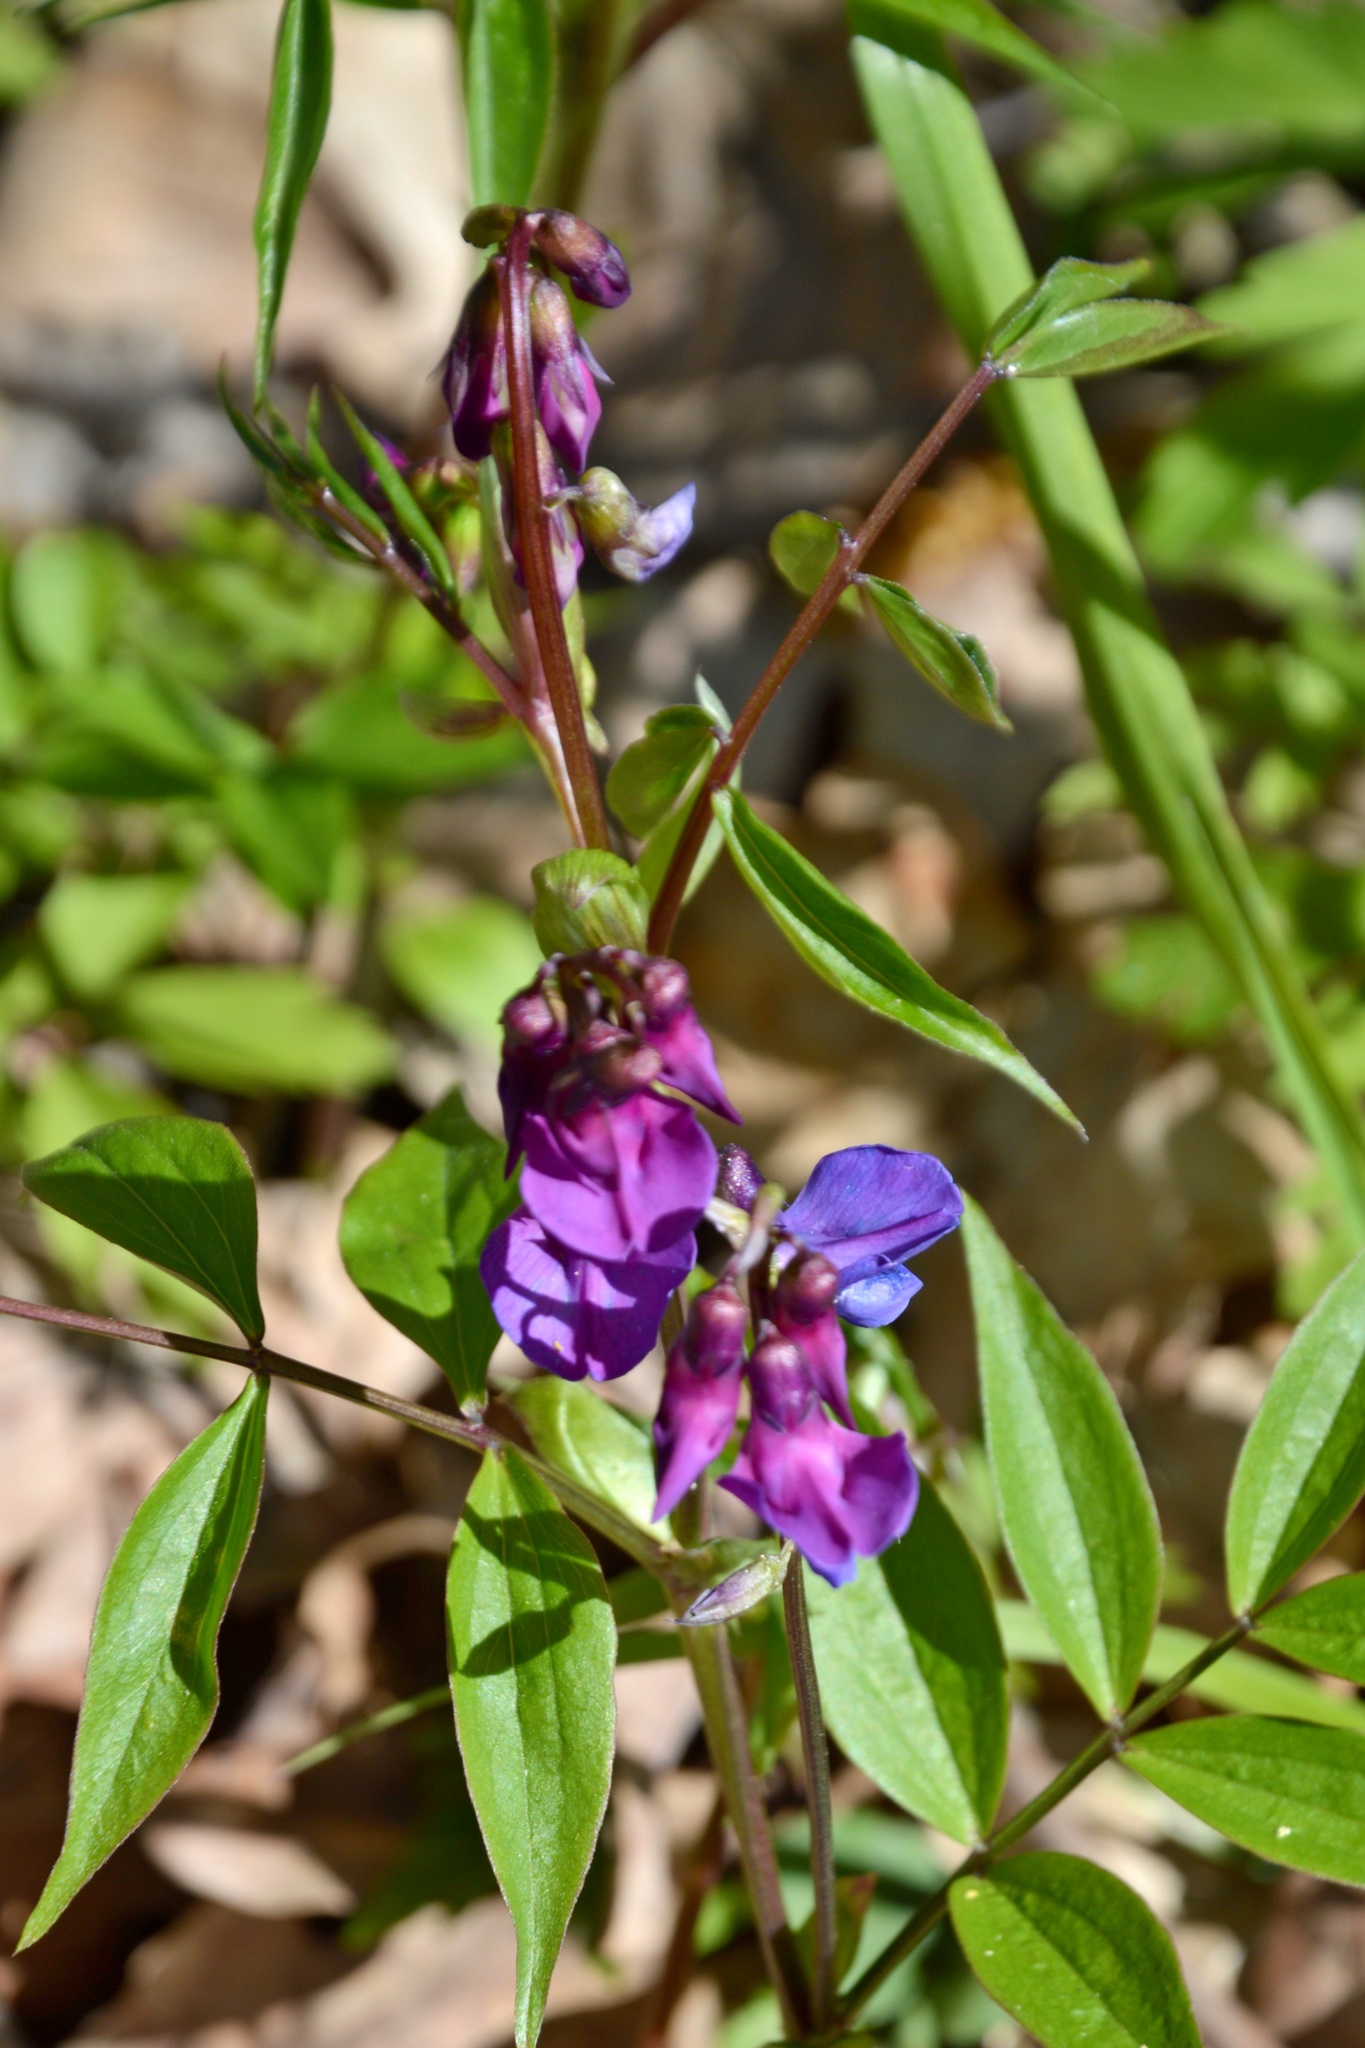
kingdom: Plantae
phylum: Tracheophyta
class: Magnoliopsida
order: Fabales
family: Fabaceae
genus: Lathyrus
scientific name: Lathyrus vernus
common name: Spring pea
